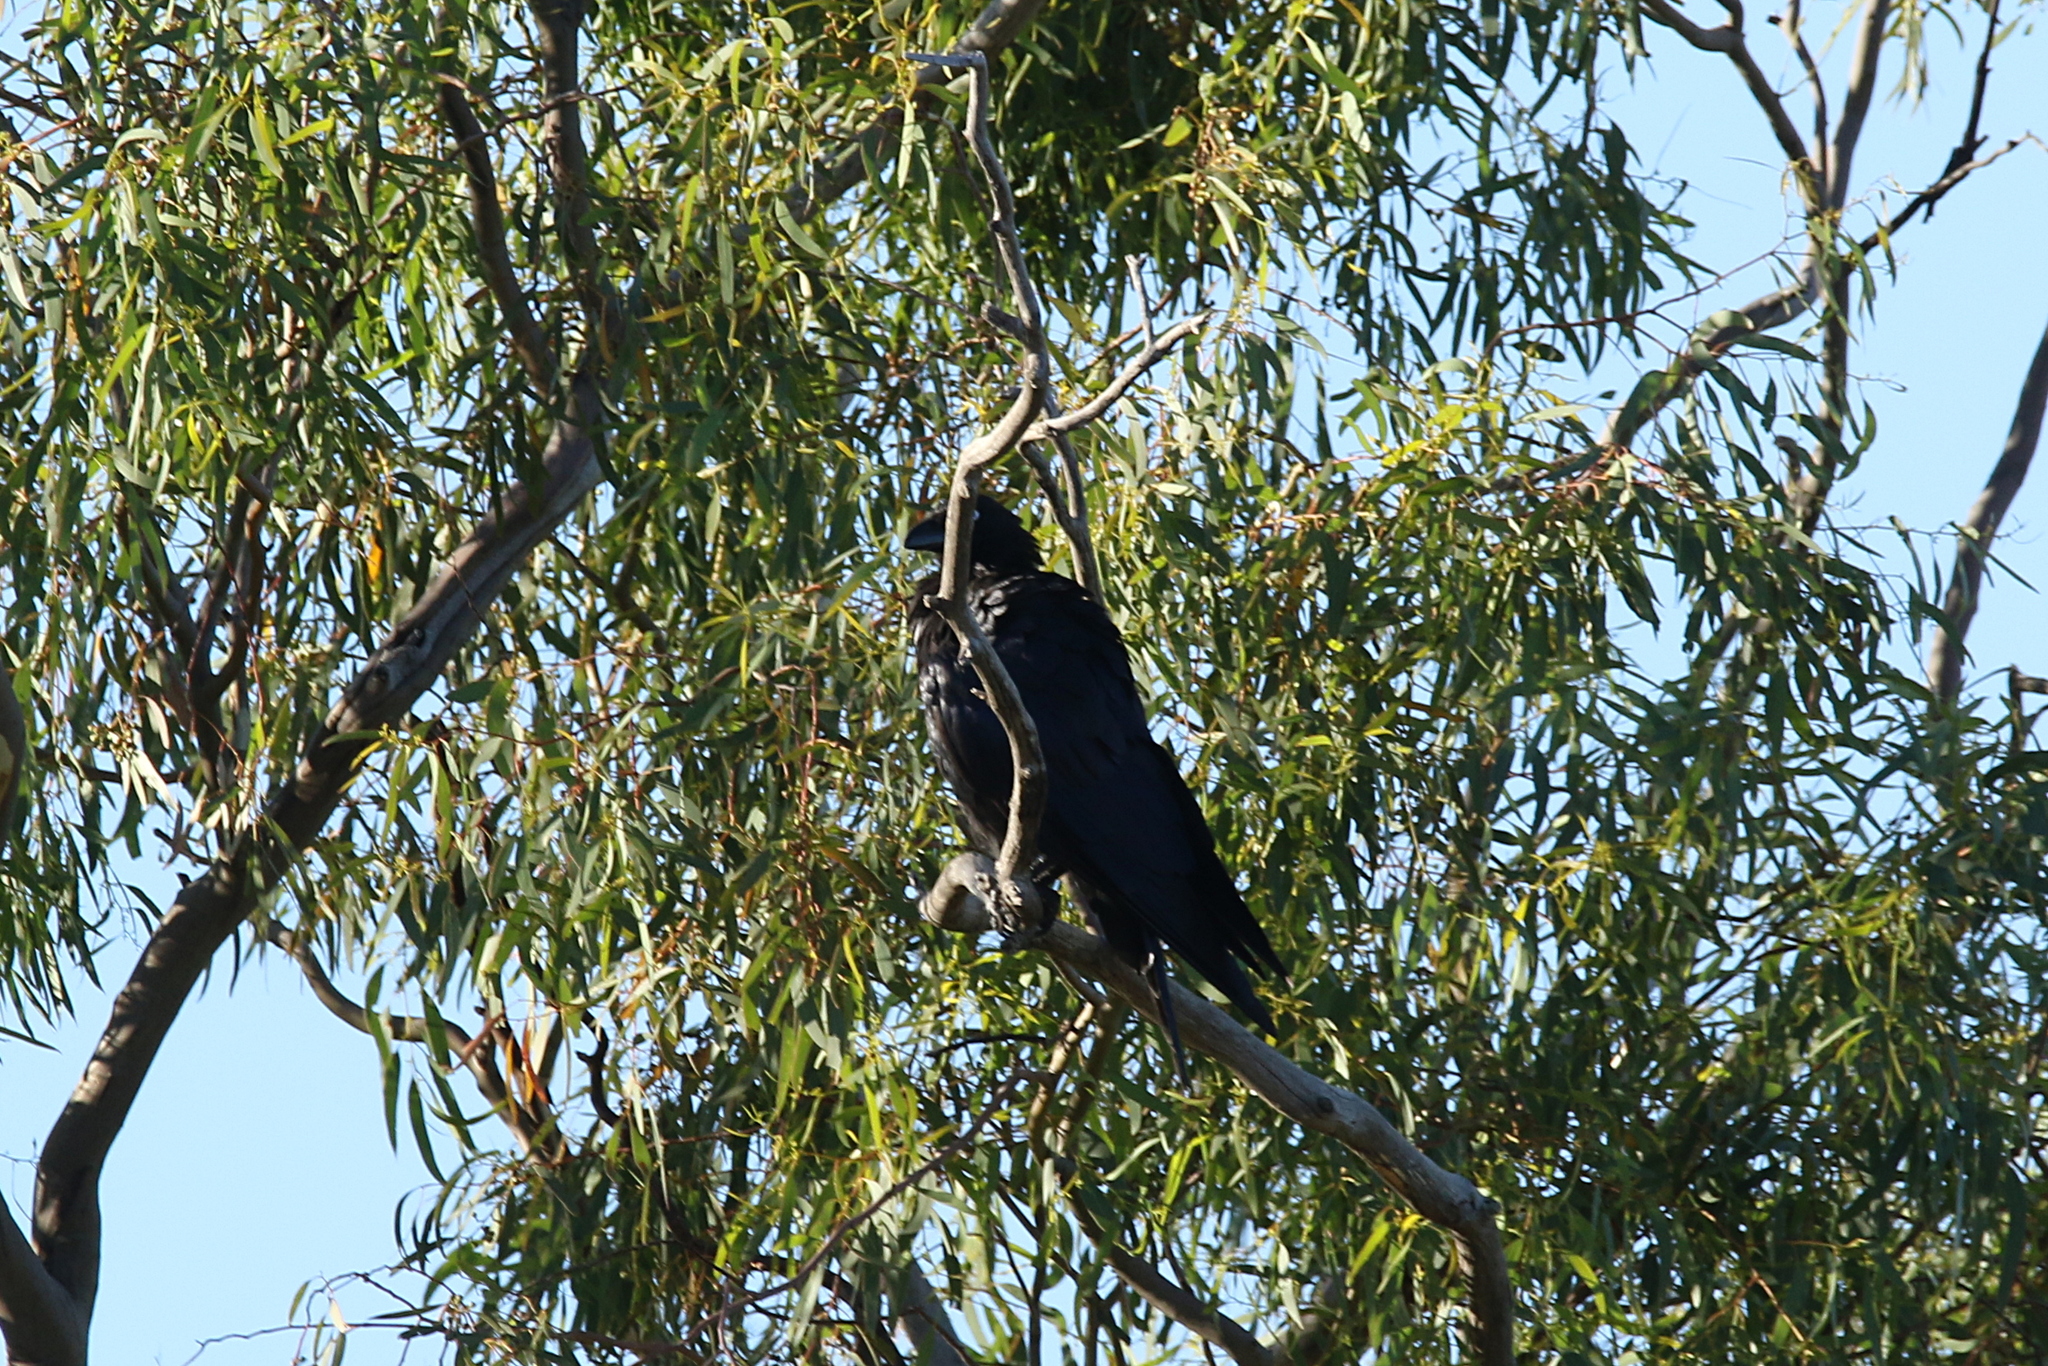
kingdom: Animalia
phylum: Chordata
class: Aves
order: Passeriformes
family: Corvidae
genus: Corvus
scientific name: Corvus coronoides
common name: Australian raven
